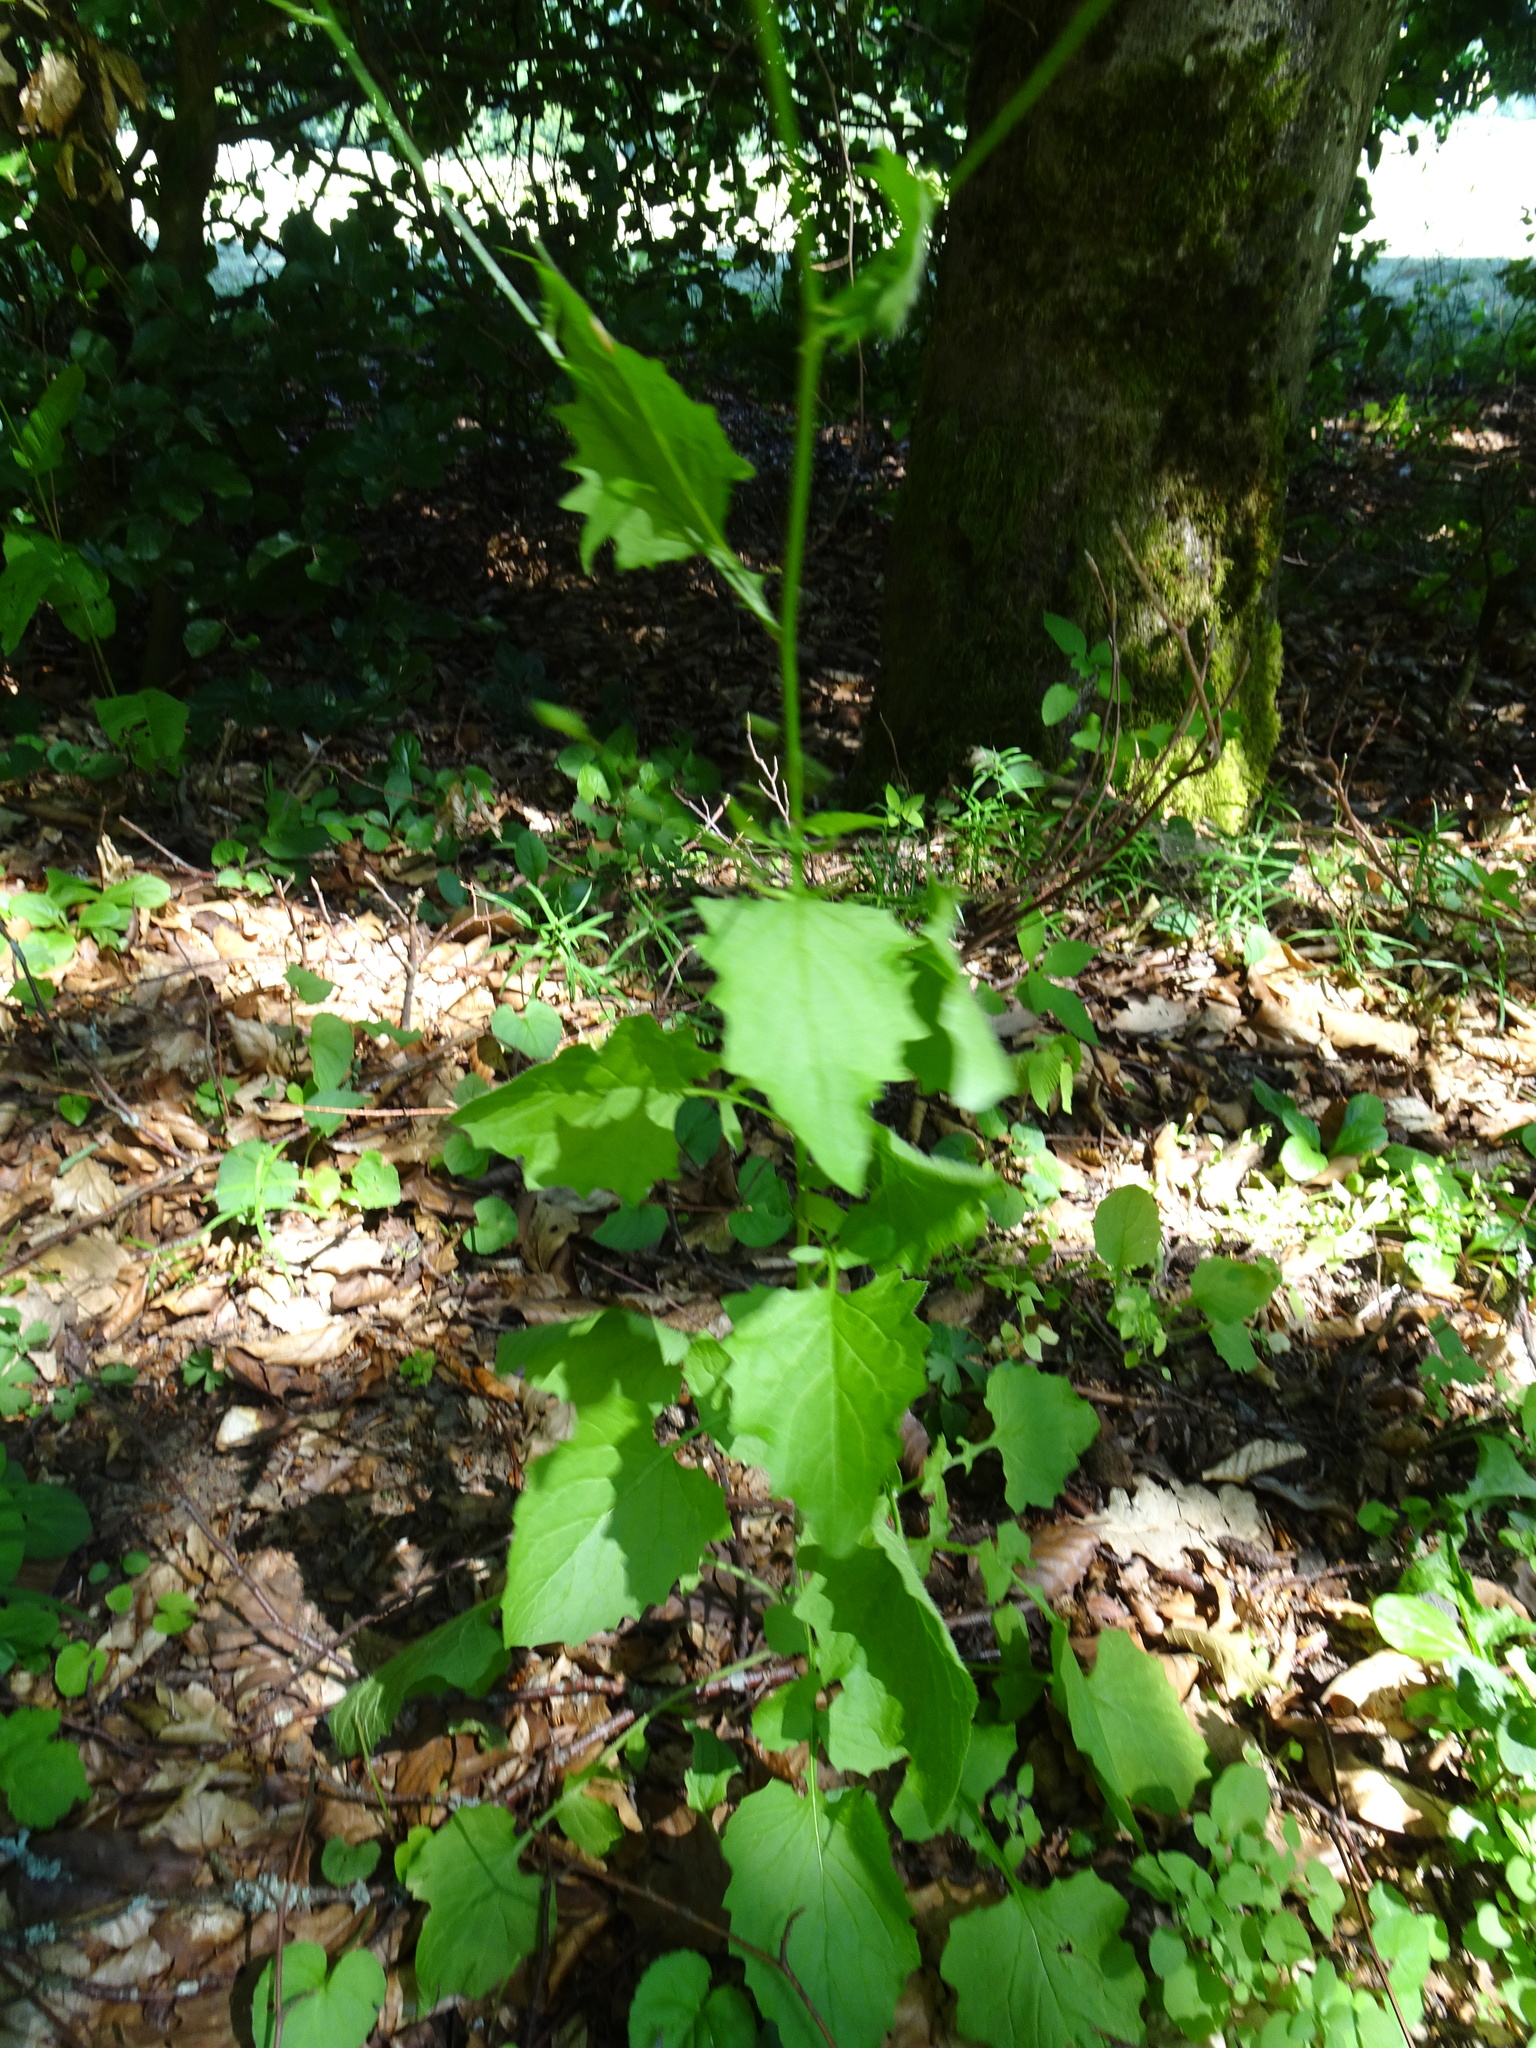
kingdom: Plantae
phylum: Tracheophyta
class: Magnoliopsida
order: Asterales
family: Asteraceae
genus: Lapsana
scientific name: Lapsana communis
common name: Nipplewort
